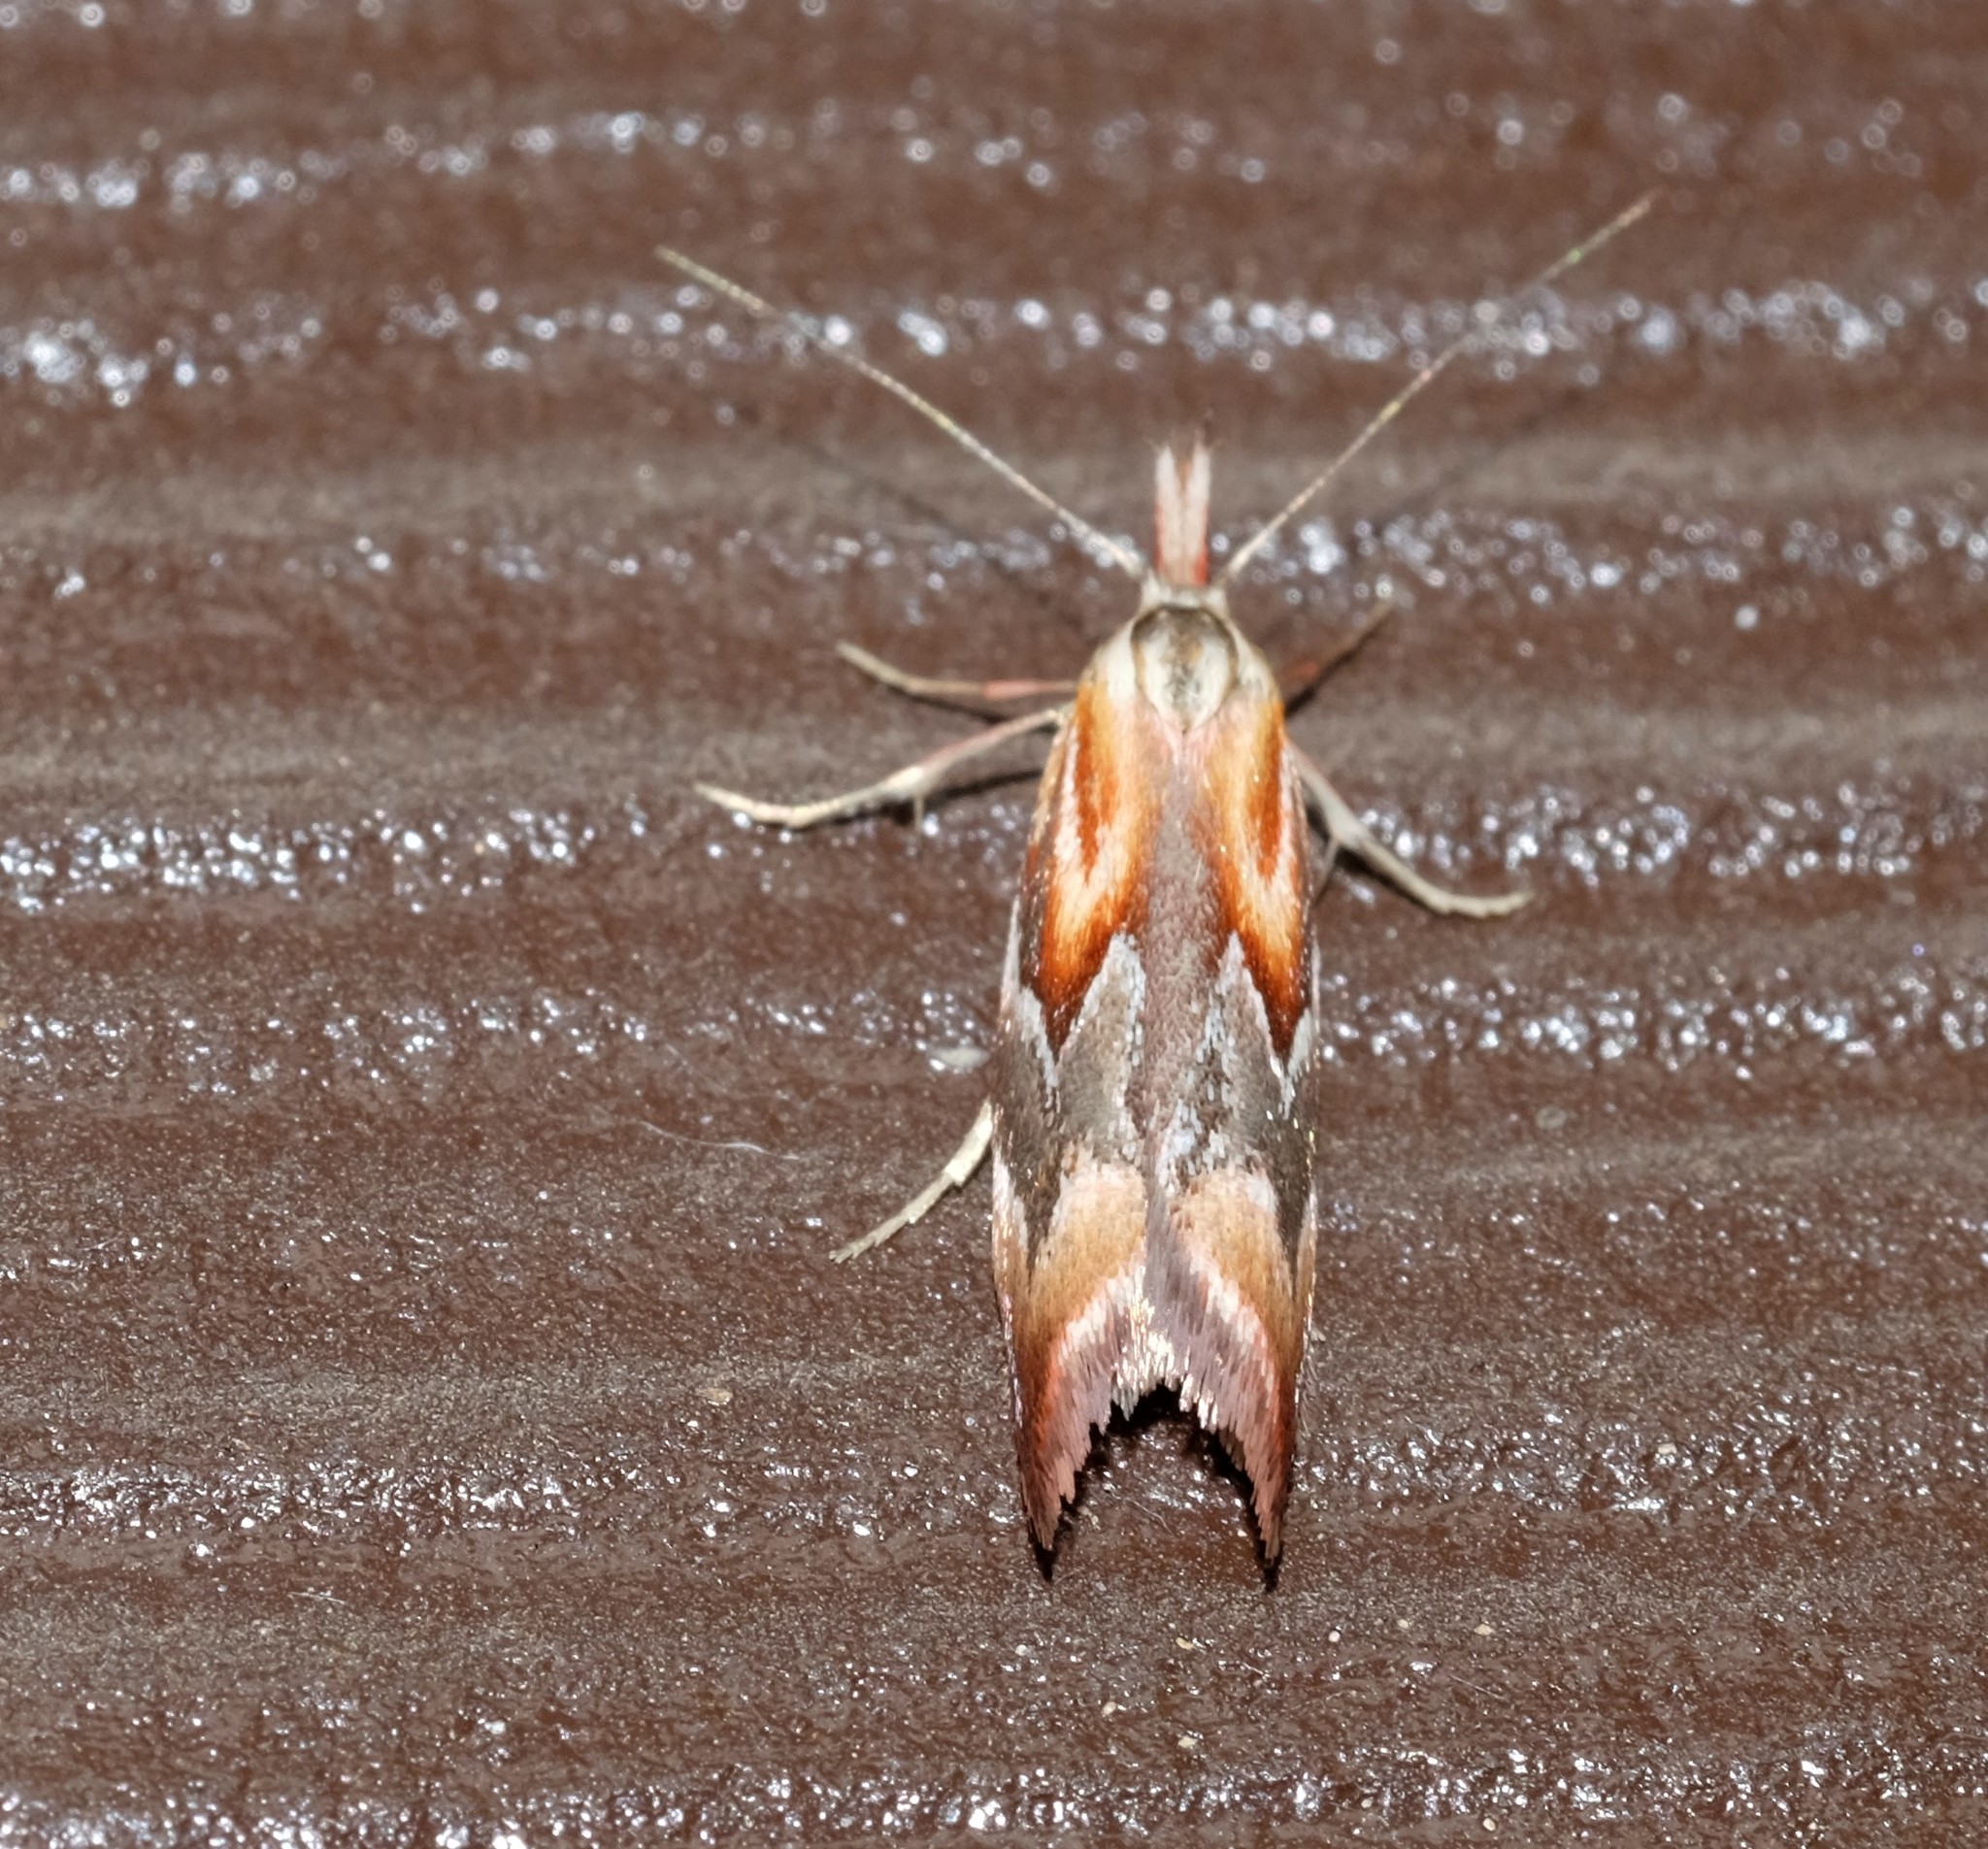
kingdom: Animalia
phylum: Arthropoda
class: Insecta
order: Lepidoptera
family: Oecophoridae
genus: Deigmoesta
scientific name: Deigmoesta lithocosma
